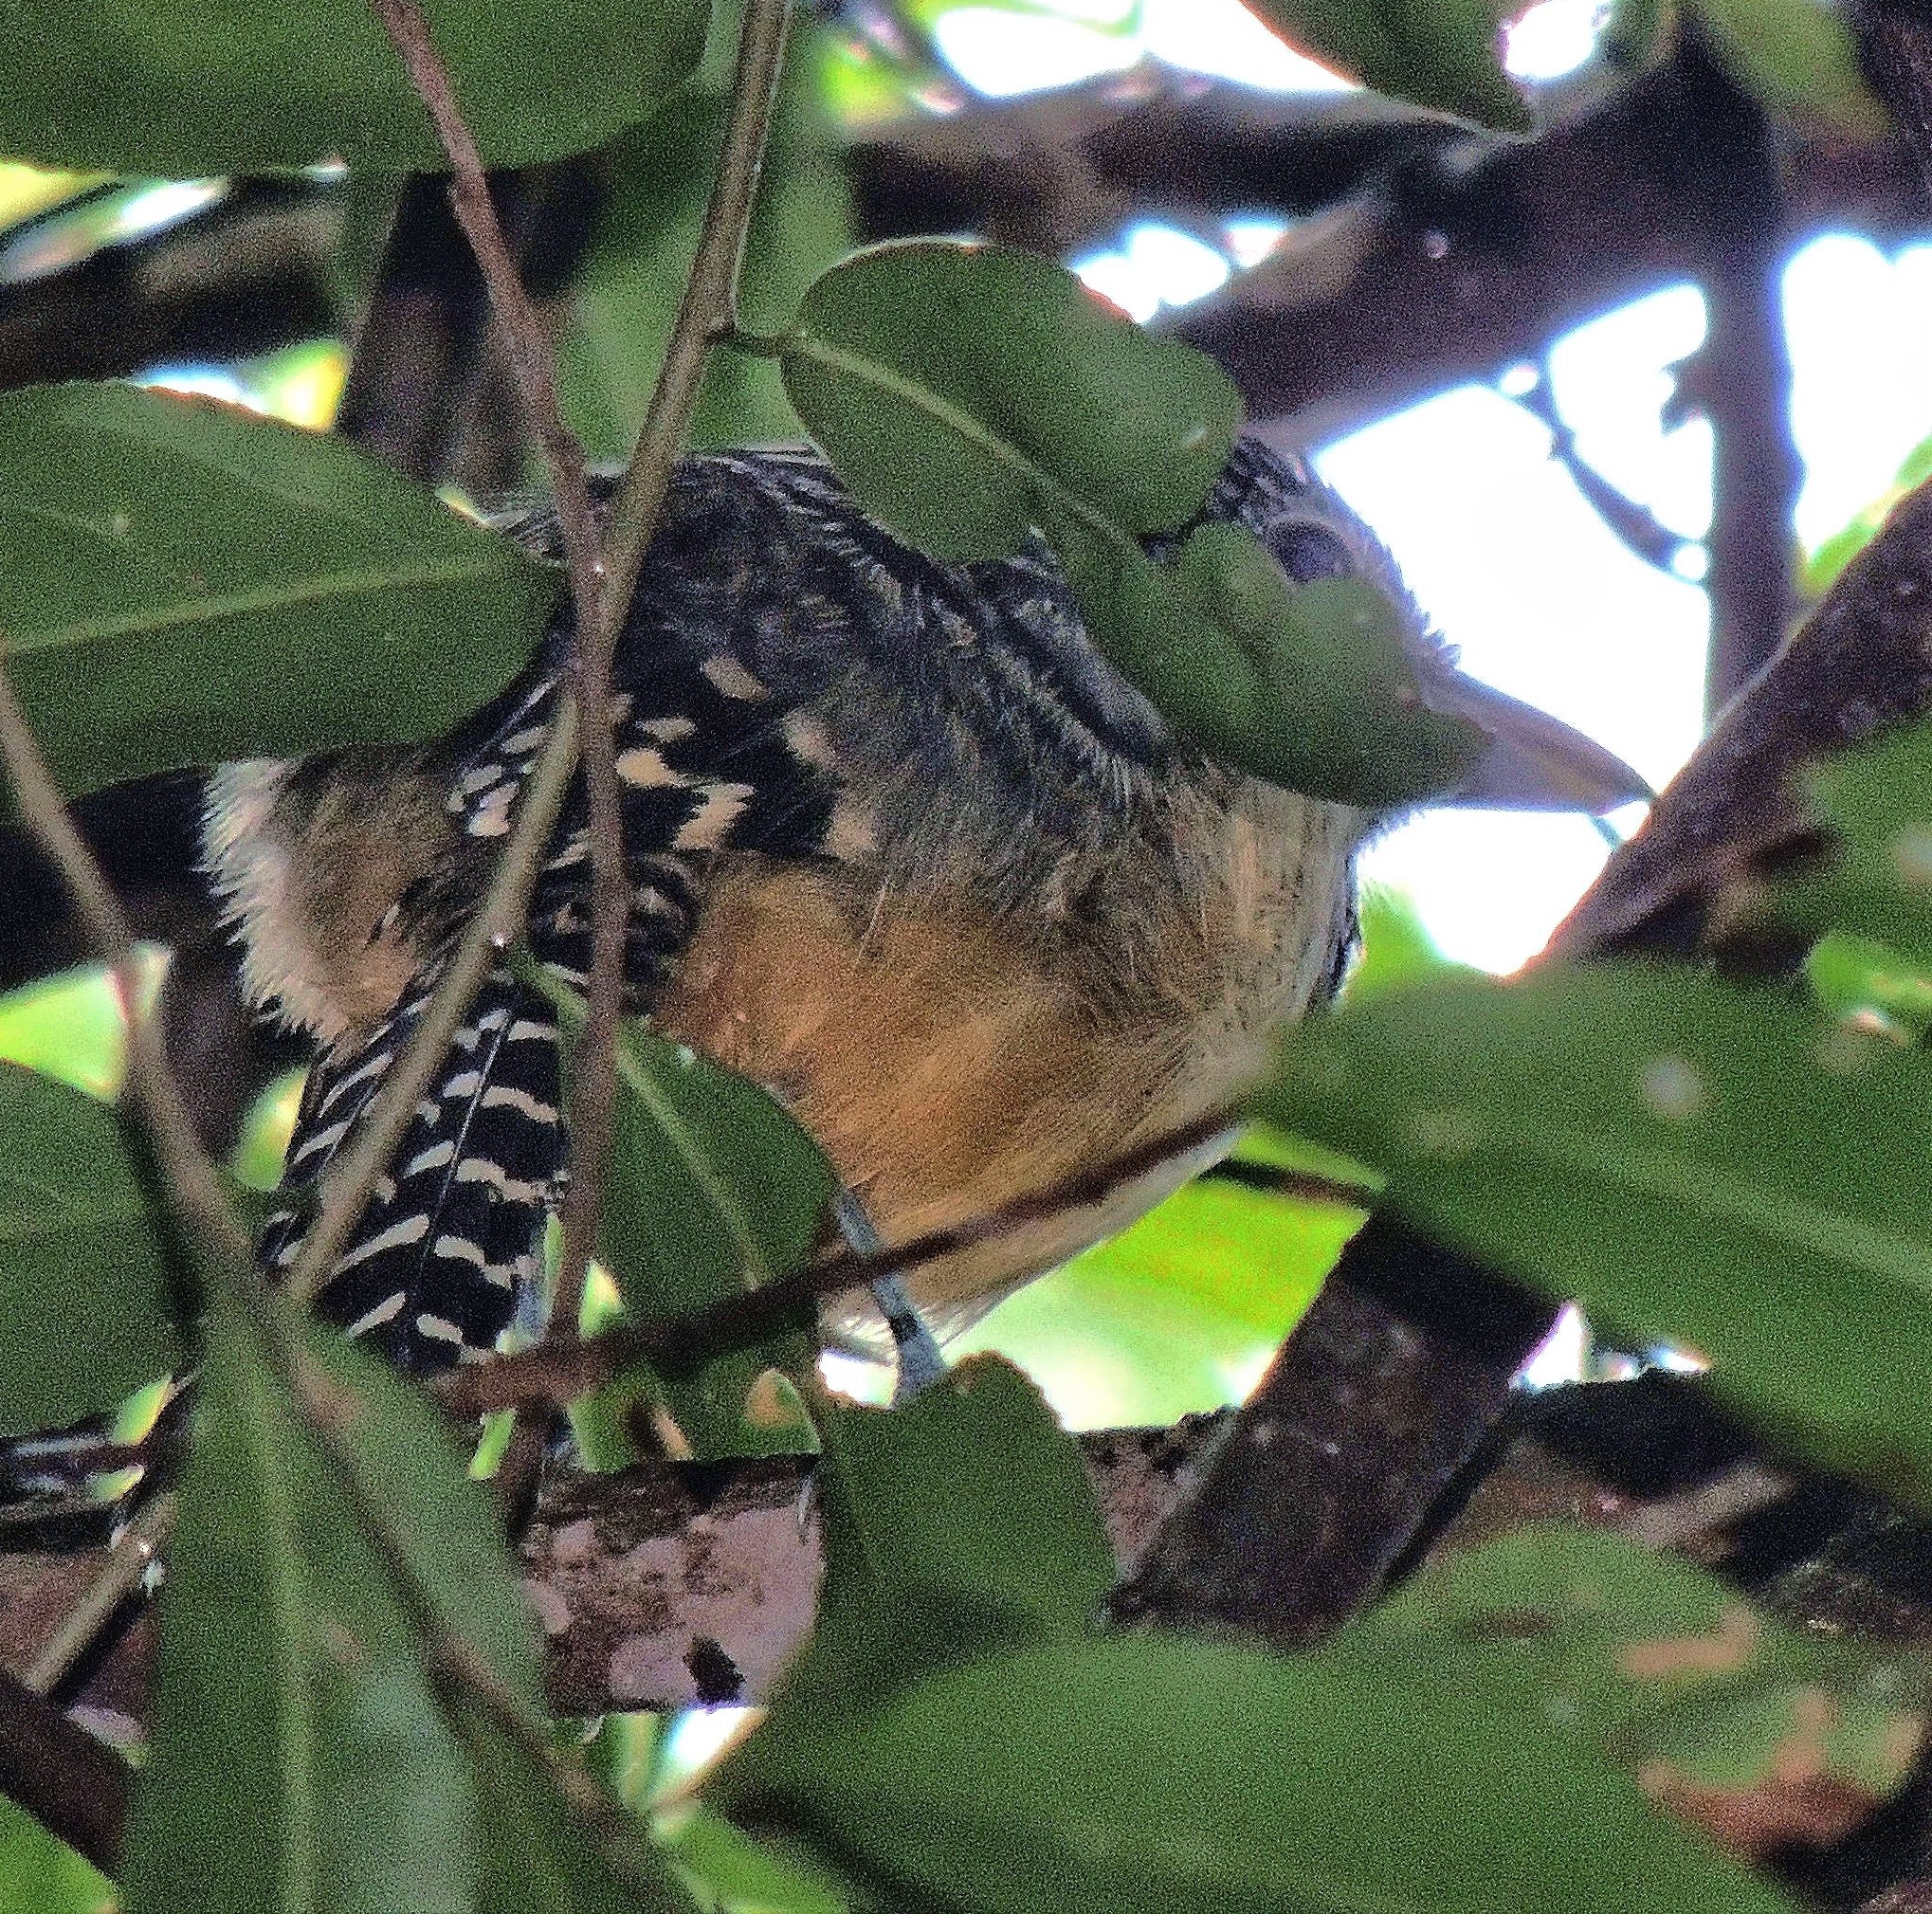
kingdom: Animalia
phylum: Chordata
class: Aves
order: Passeriformes
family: Thamnophilidae
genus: Hypoedaleus
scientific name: Hypoedaleus guttatus
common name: Spot-backed antshrike
